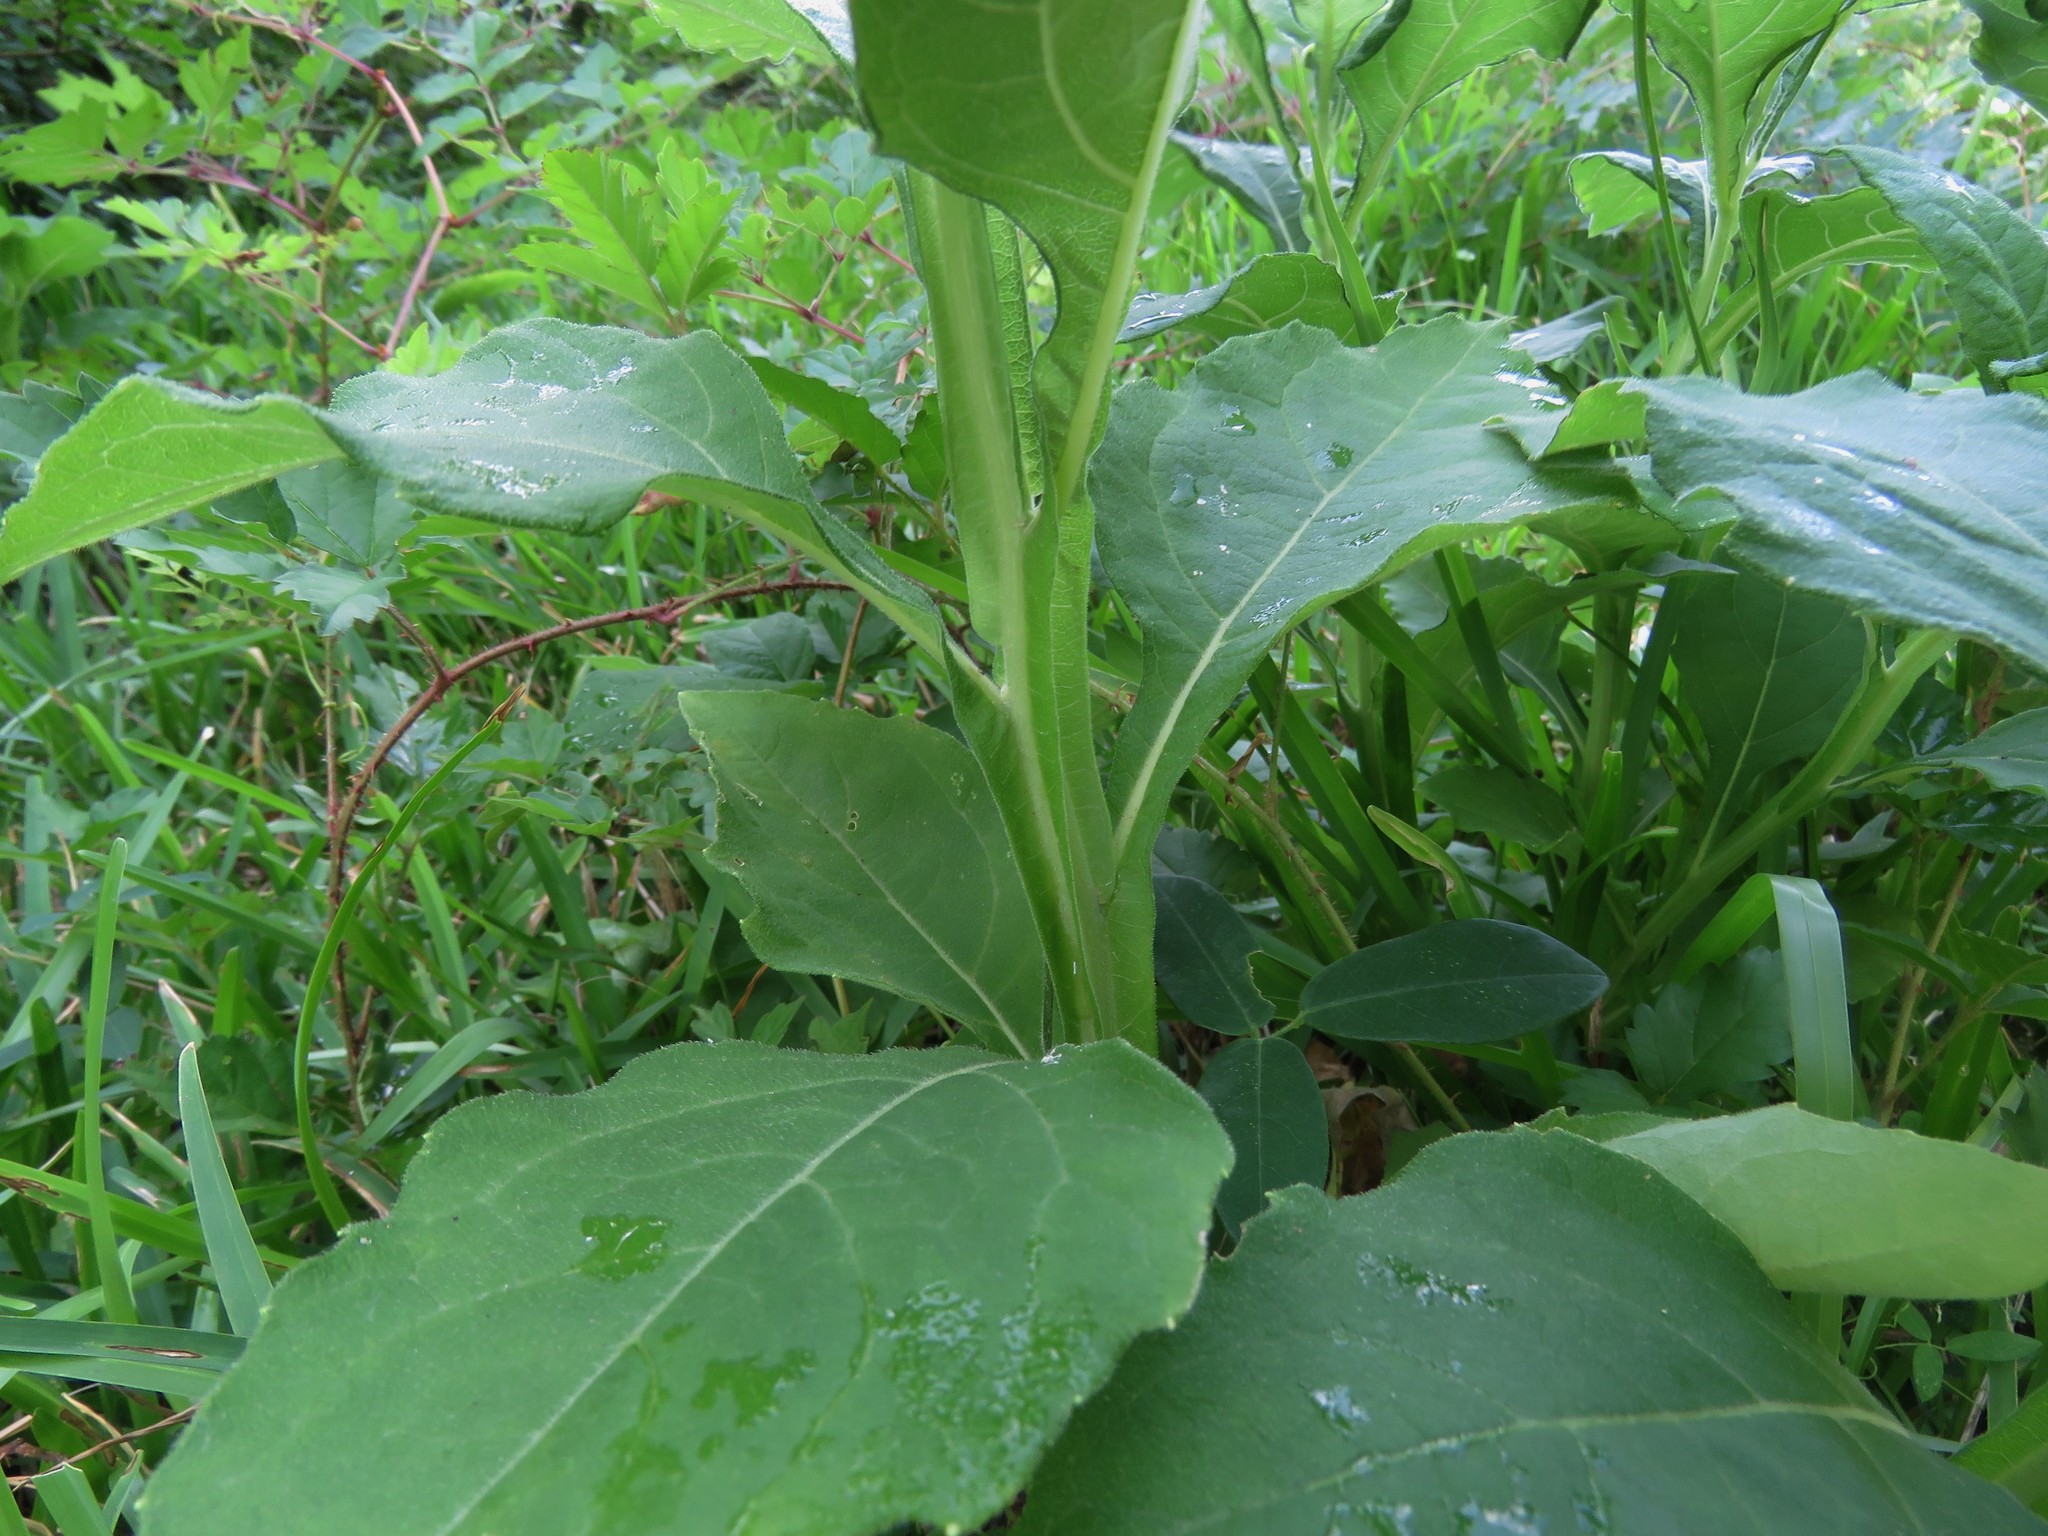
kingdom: Plantae
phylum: Tracheophyta
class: Magnoliopsida
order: Asterales
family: Asteraceae
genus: Verbesina
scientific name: Verbesina virginica
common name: Frostweed
